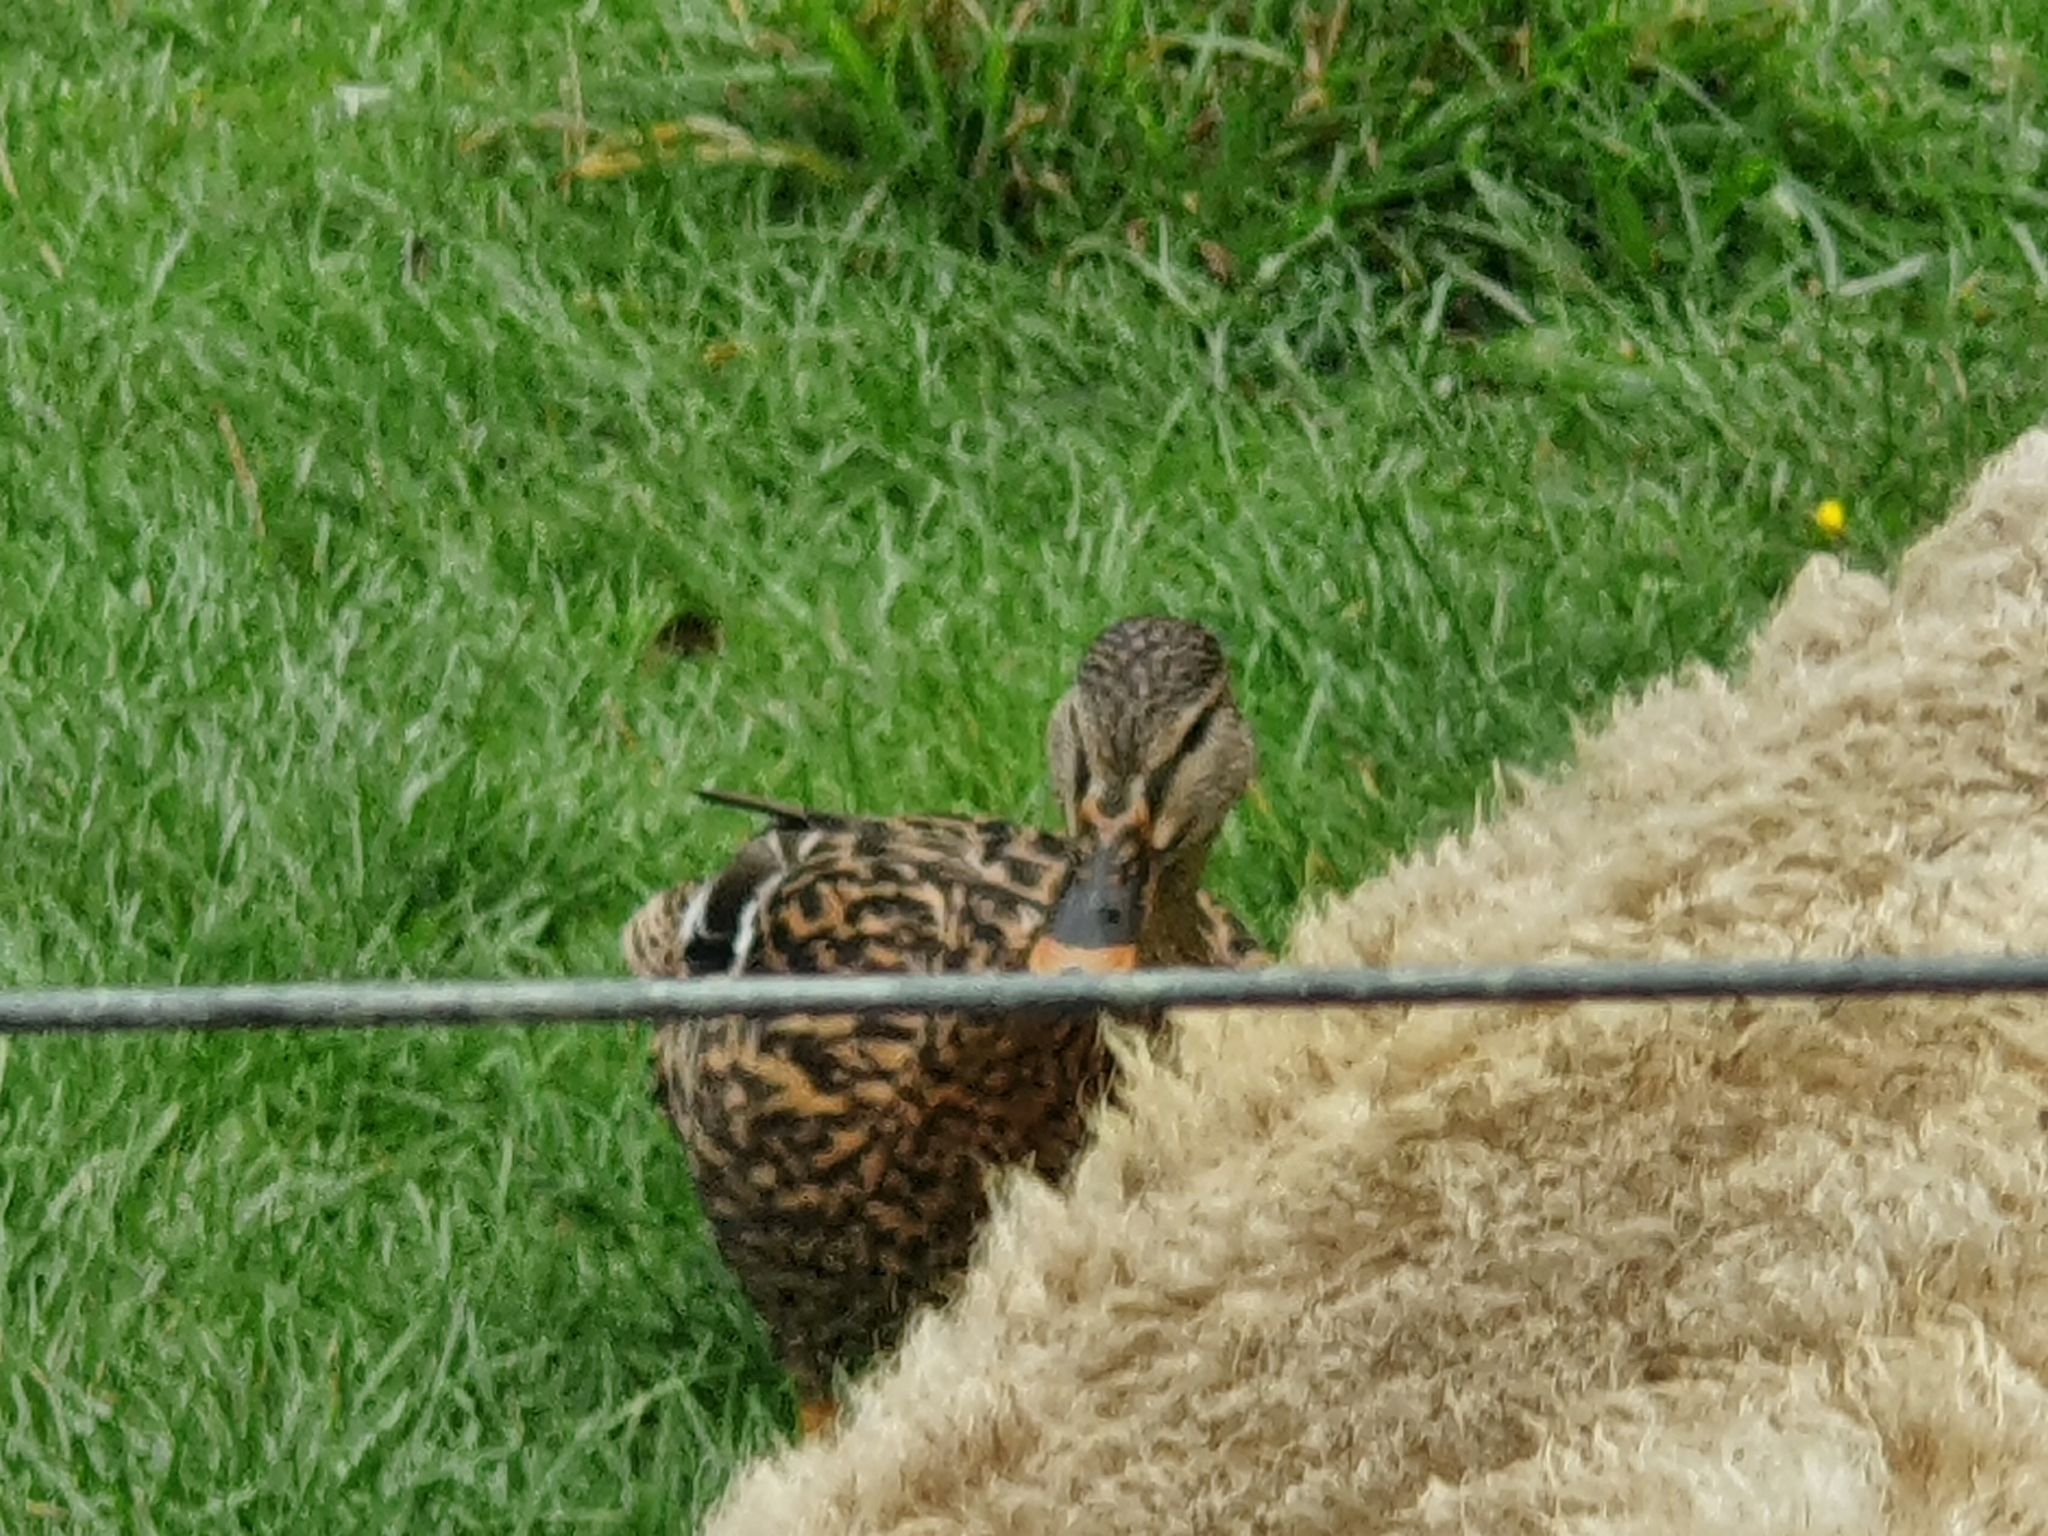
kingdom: Animalia
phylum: Chordata
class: Aves
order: Anseriformes
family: Anatidae
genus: Anas
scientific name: Anas
